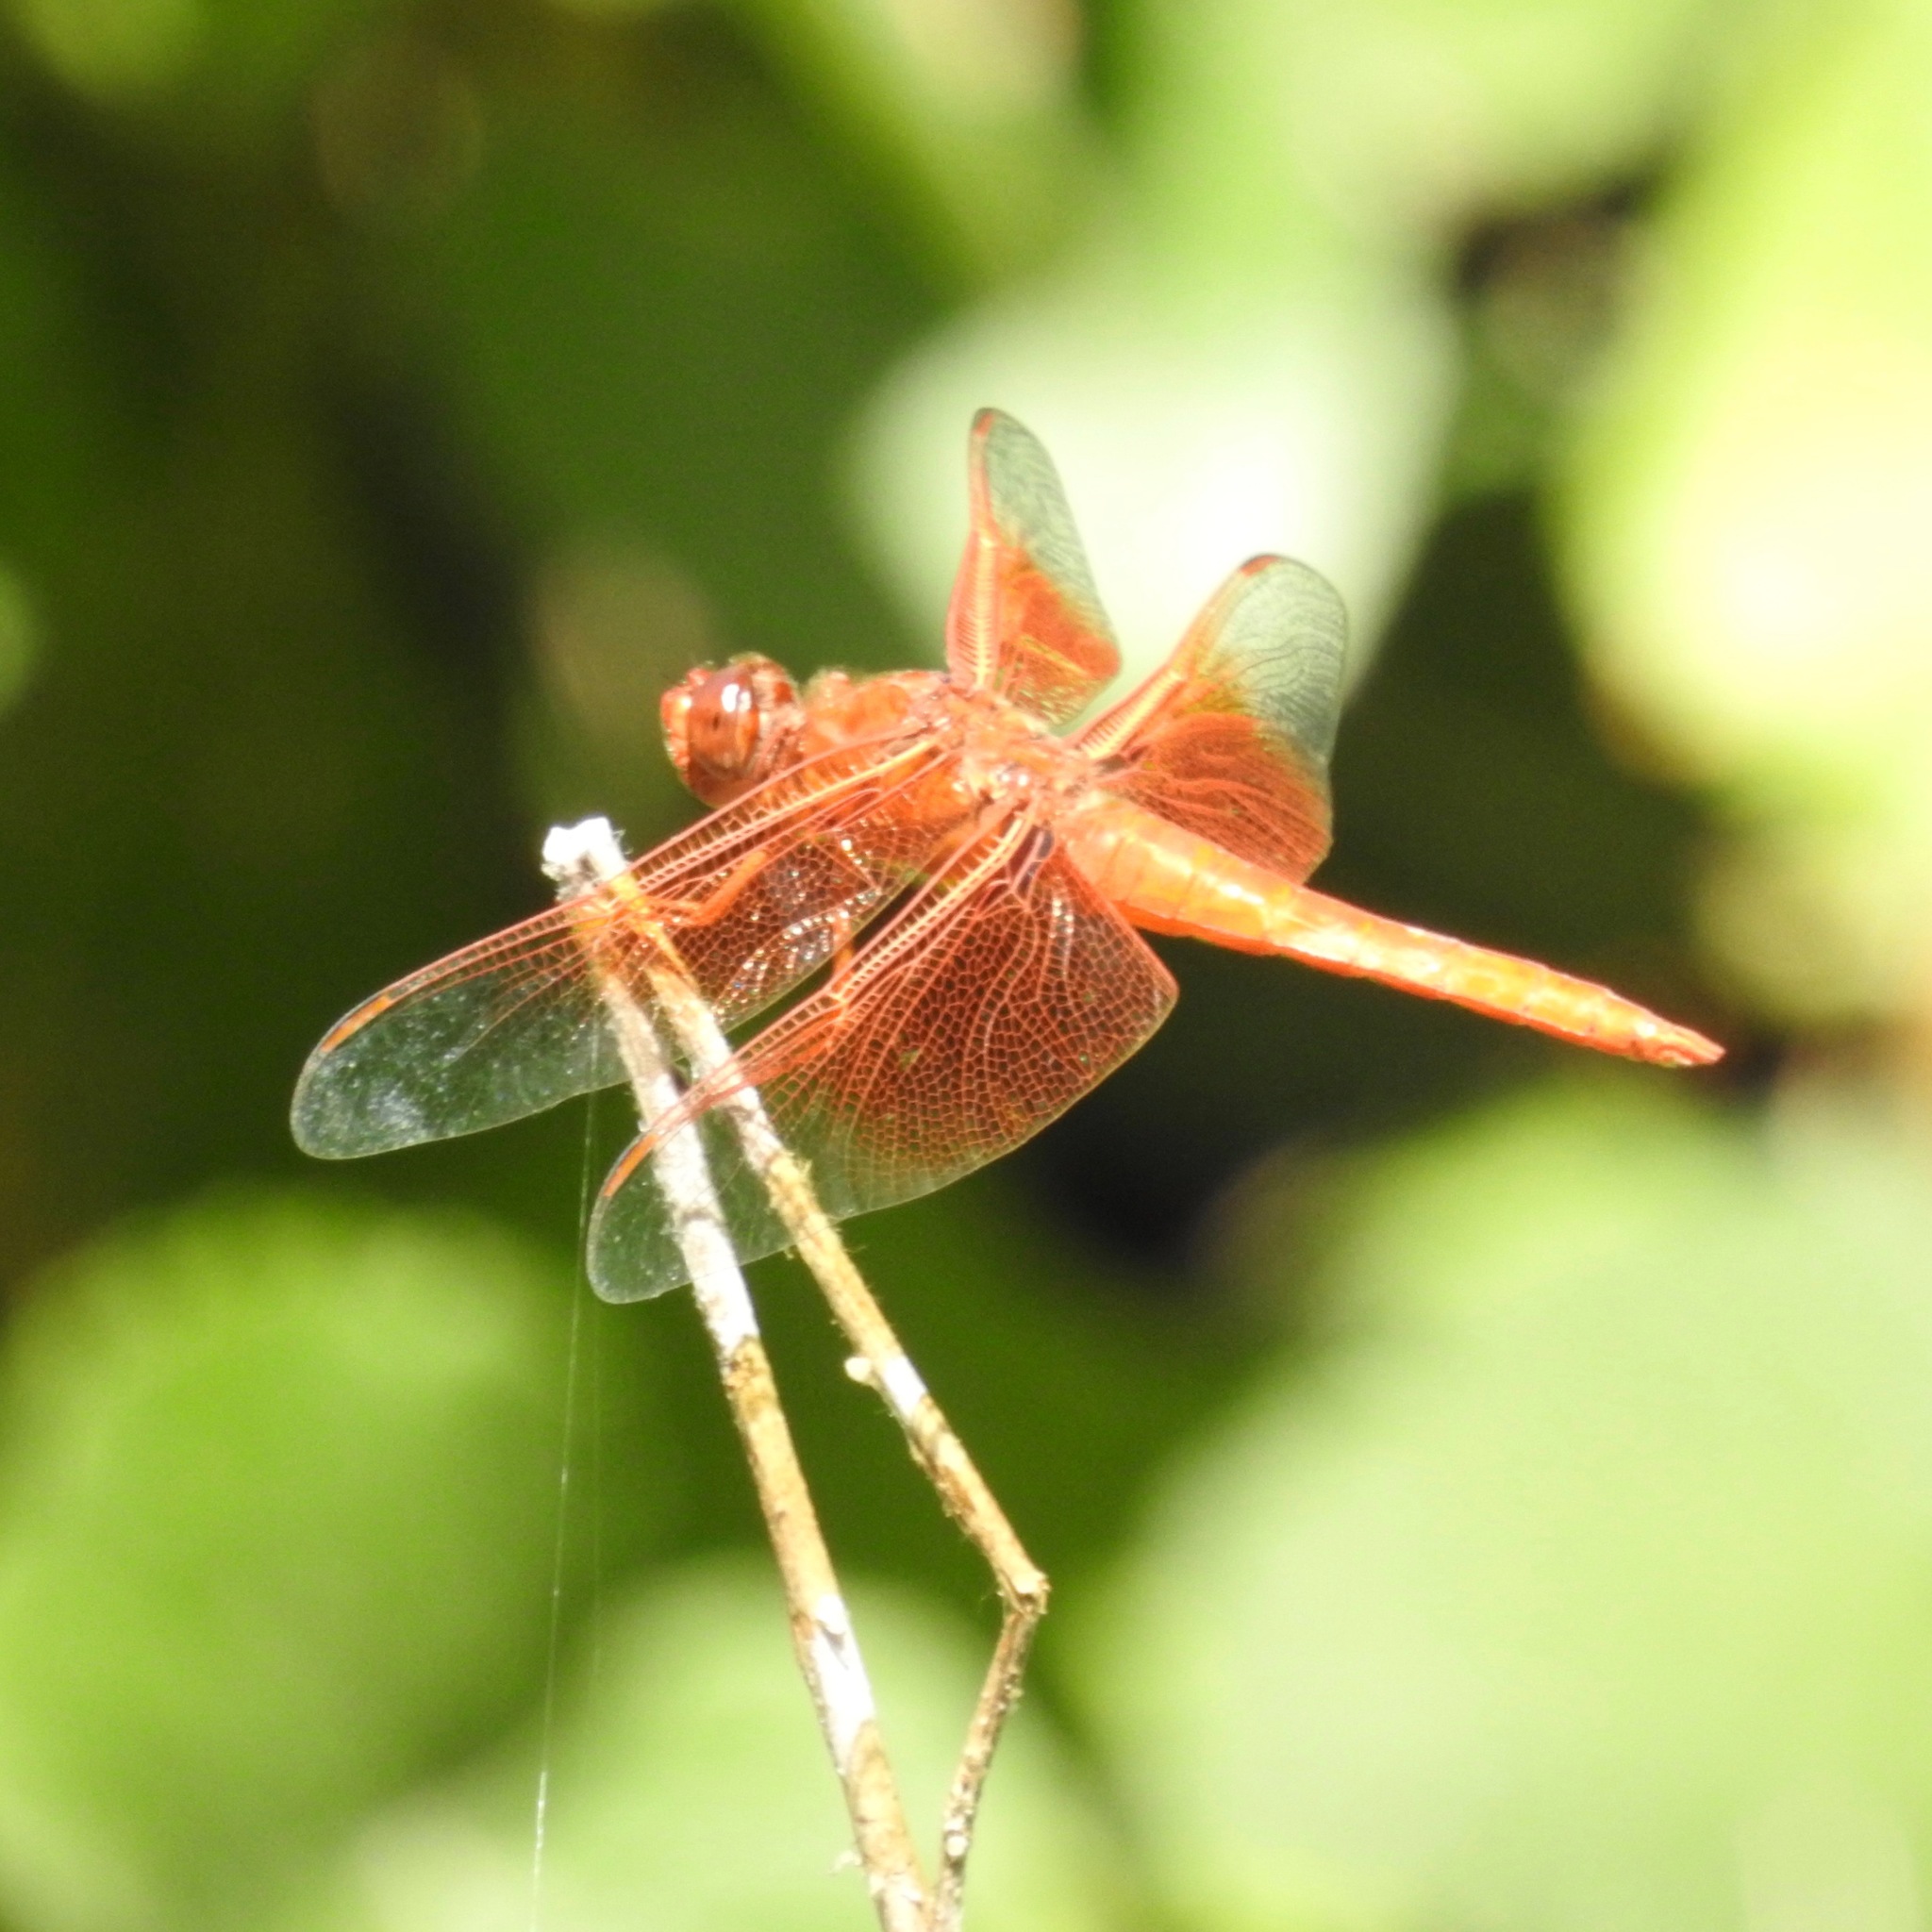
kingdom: Animalia
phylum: Arthropoda
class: Insecta
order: Odonata
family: Libellulidae
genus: Libellula
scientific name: Libellula saturata
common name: Flame skimmer
